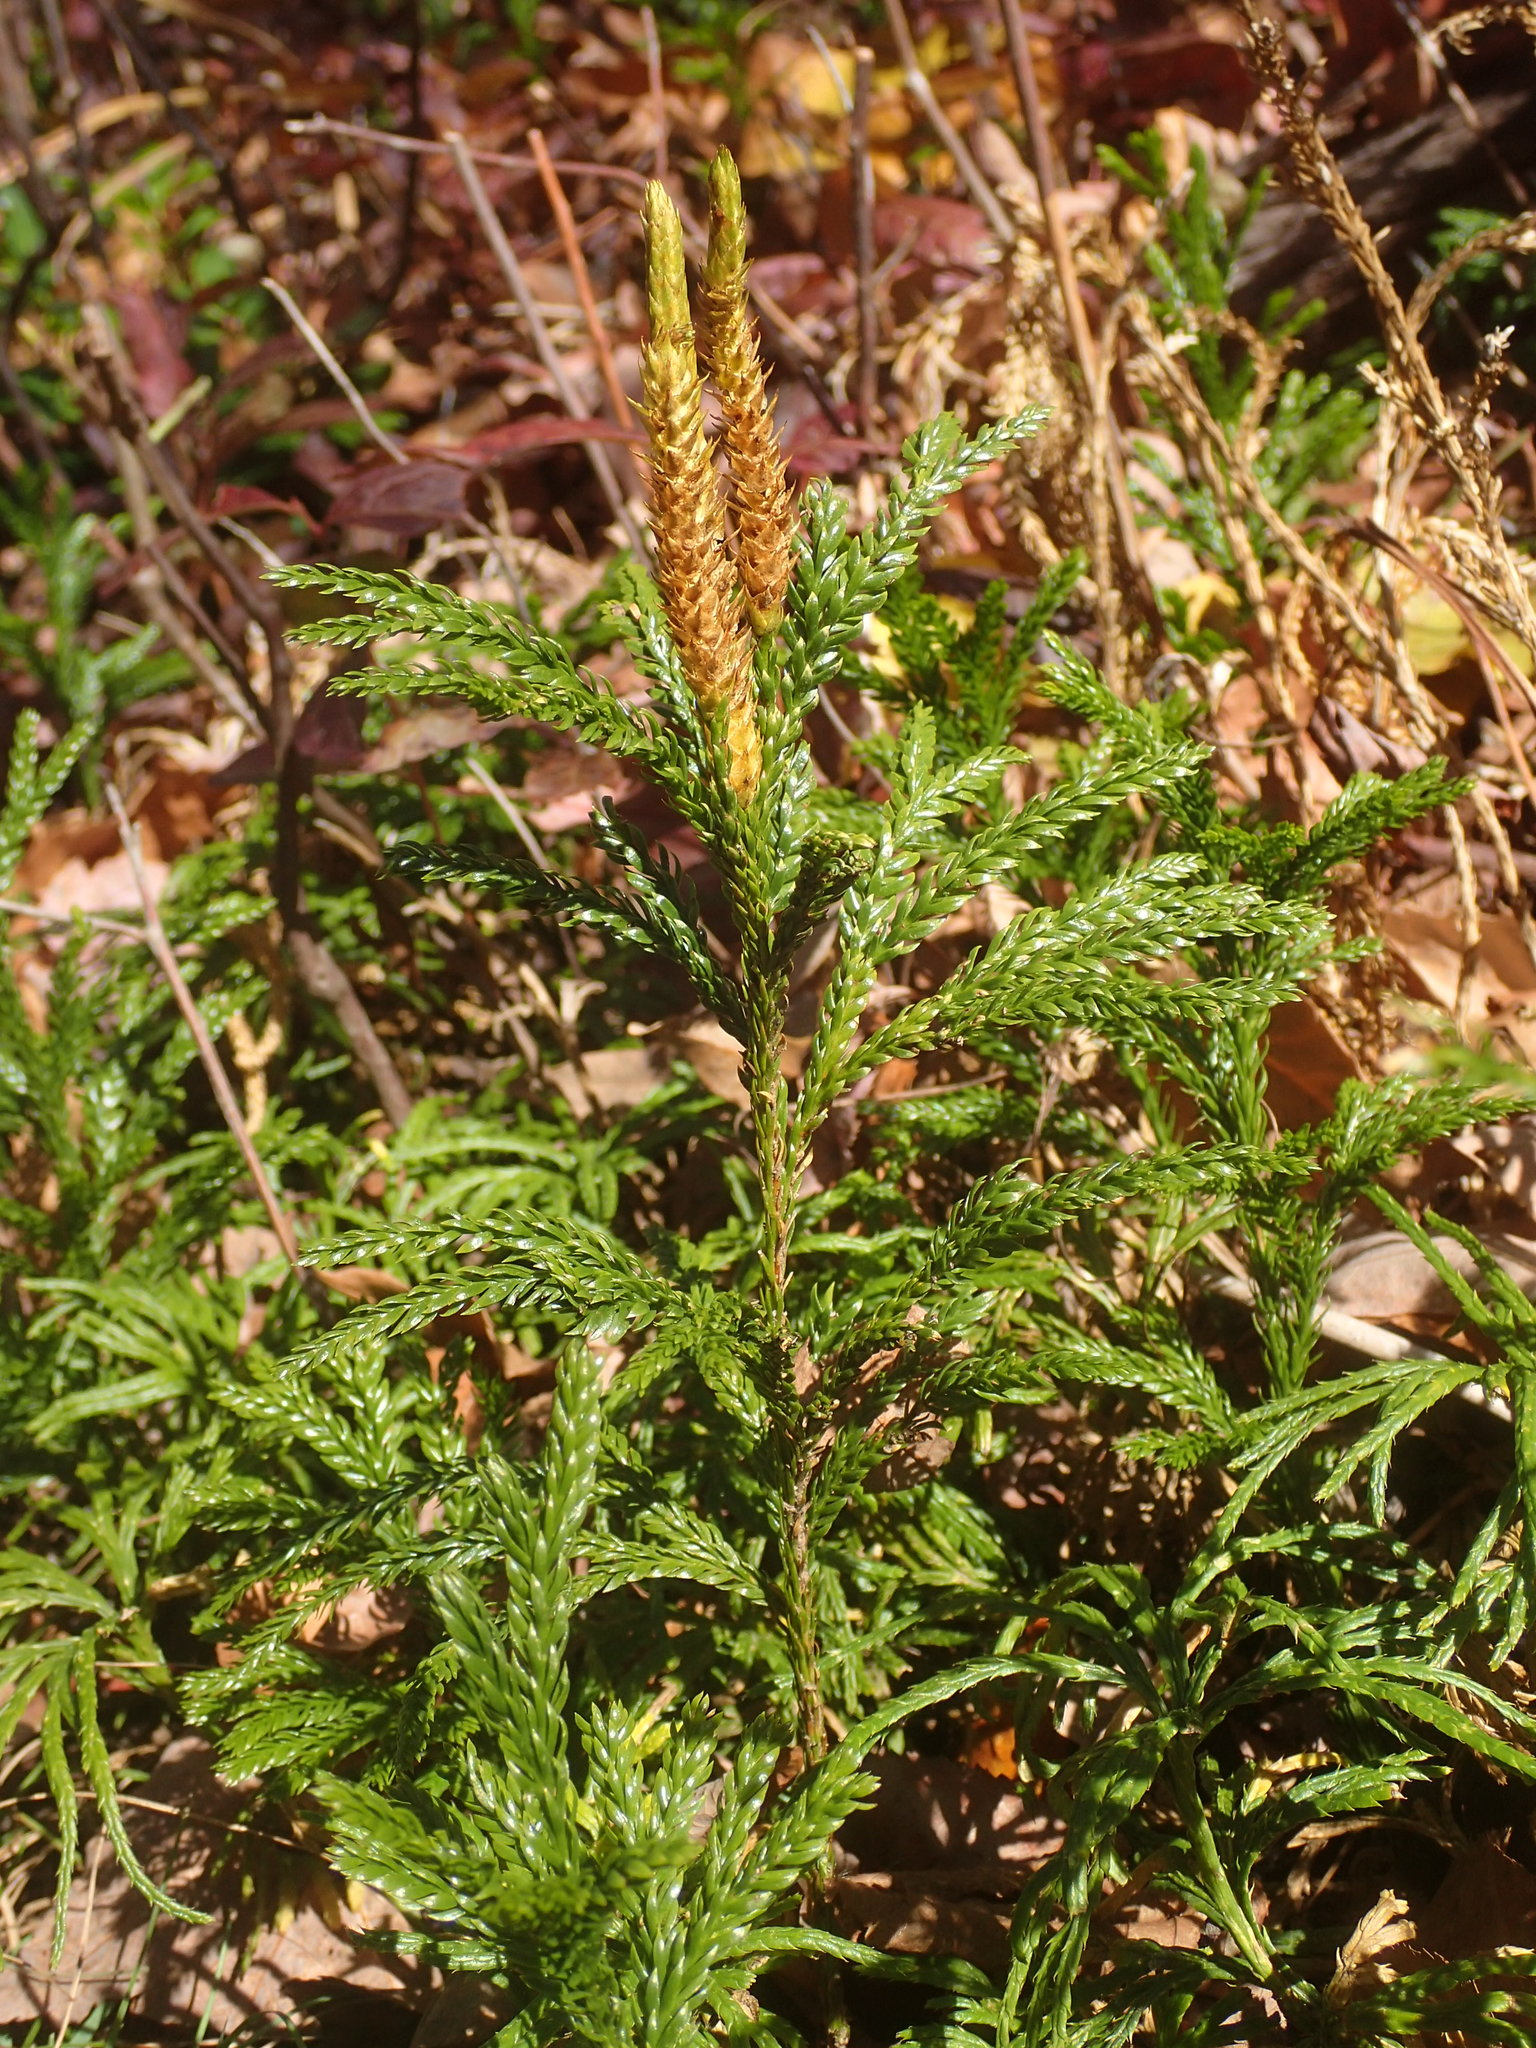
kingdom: Plantae
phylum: Tracheophyta
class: Lycopodiopsida
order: Lycopodiales
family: Lycopodiaceae
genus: Dendrolycopodium
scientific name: Dendrolycopodium obscurum
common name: Common ground-pine
